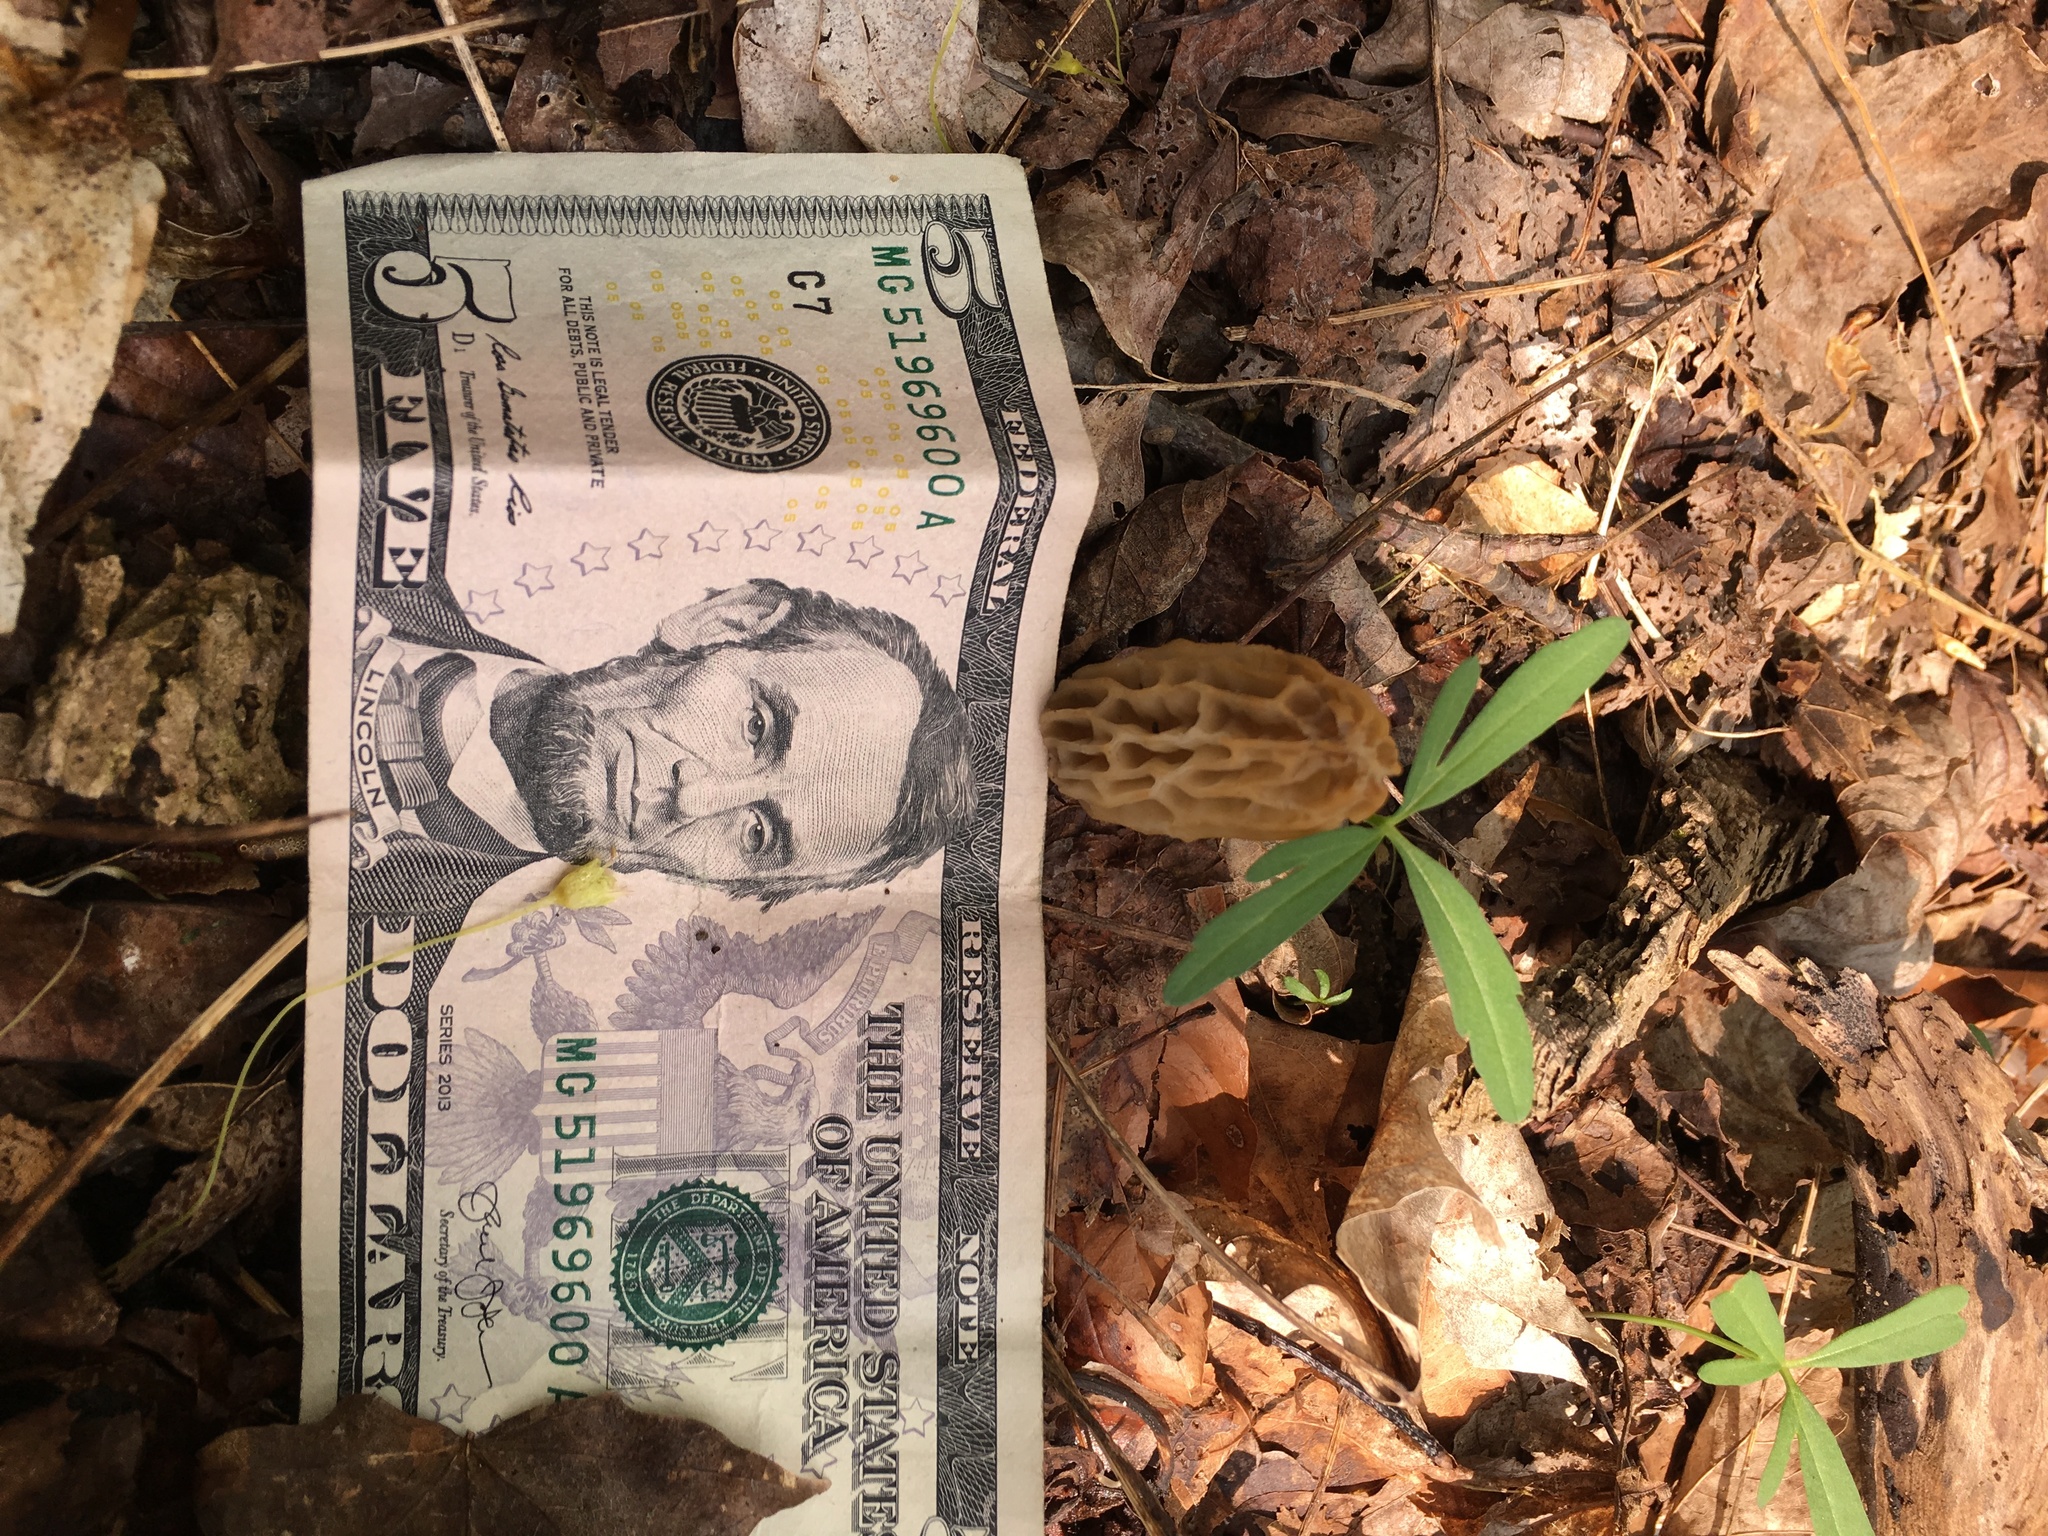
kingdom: Fungi
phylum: Ascomycota
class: Pezizomycetes
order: Pezizales
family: Morchellaceae
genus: Morchella
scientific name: Morchella diminutiva
